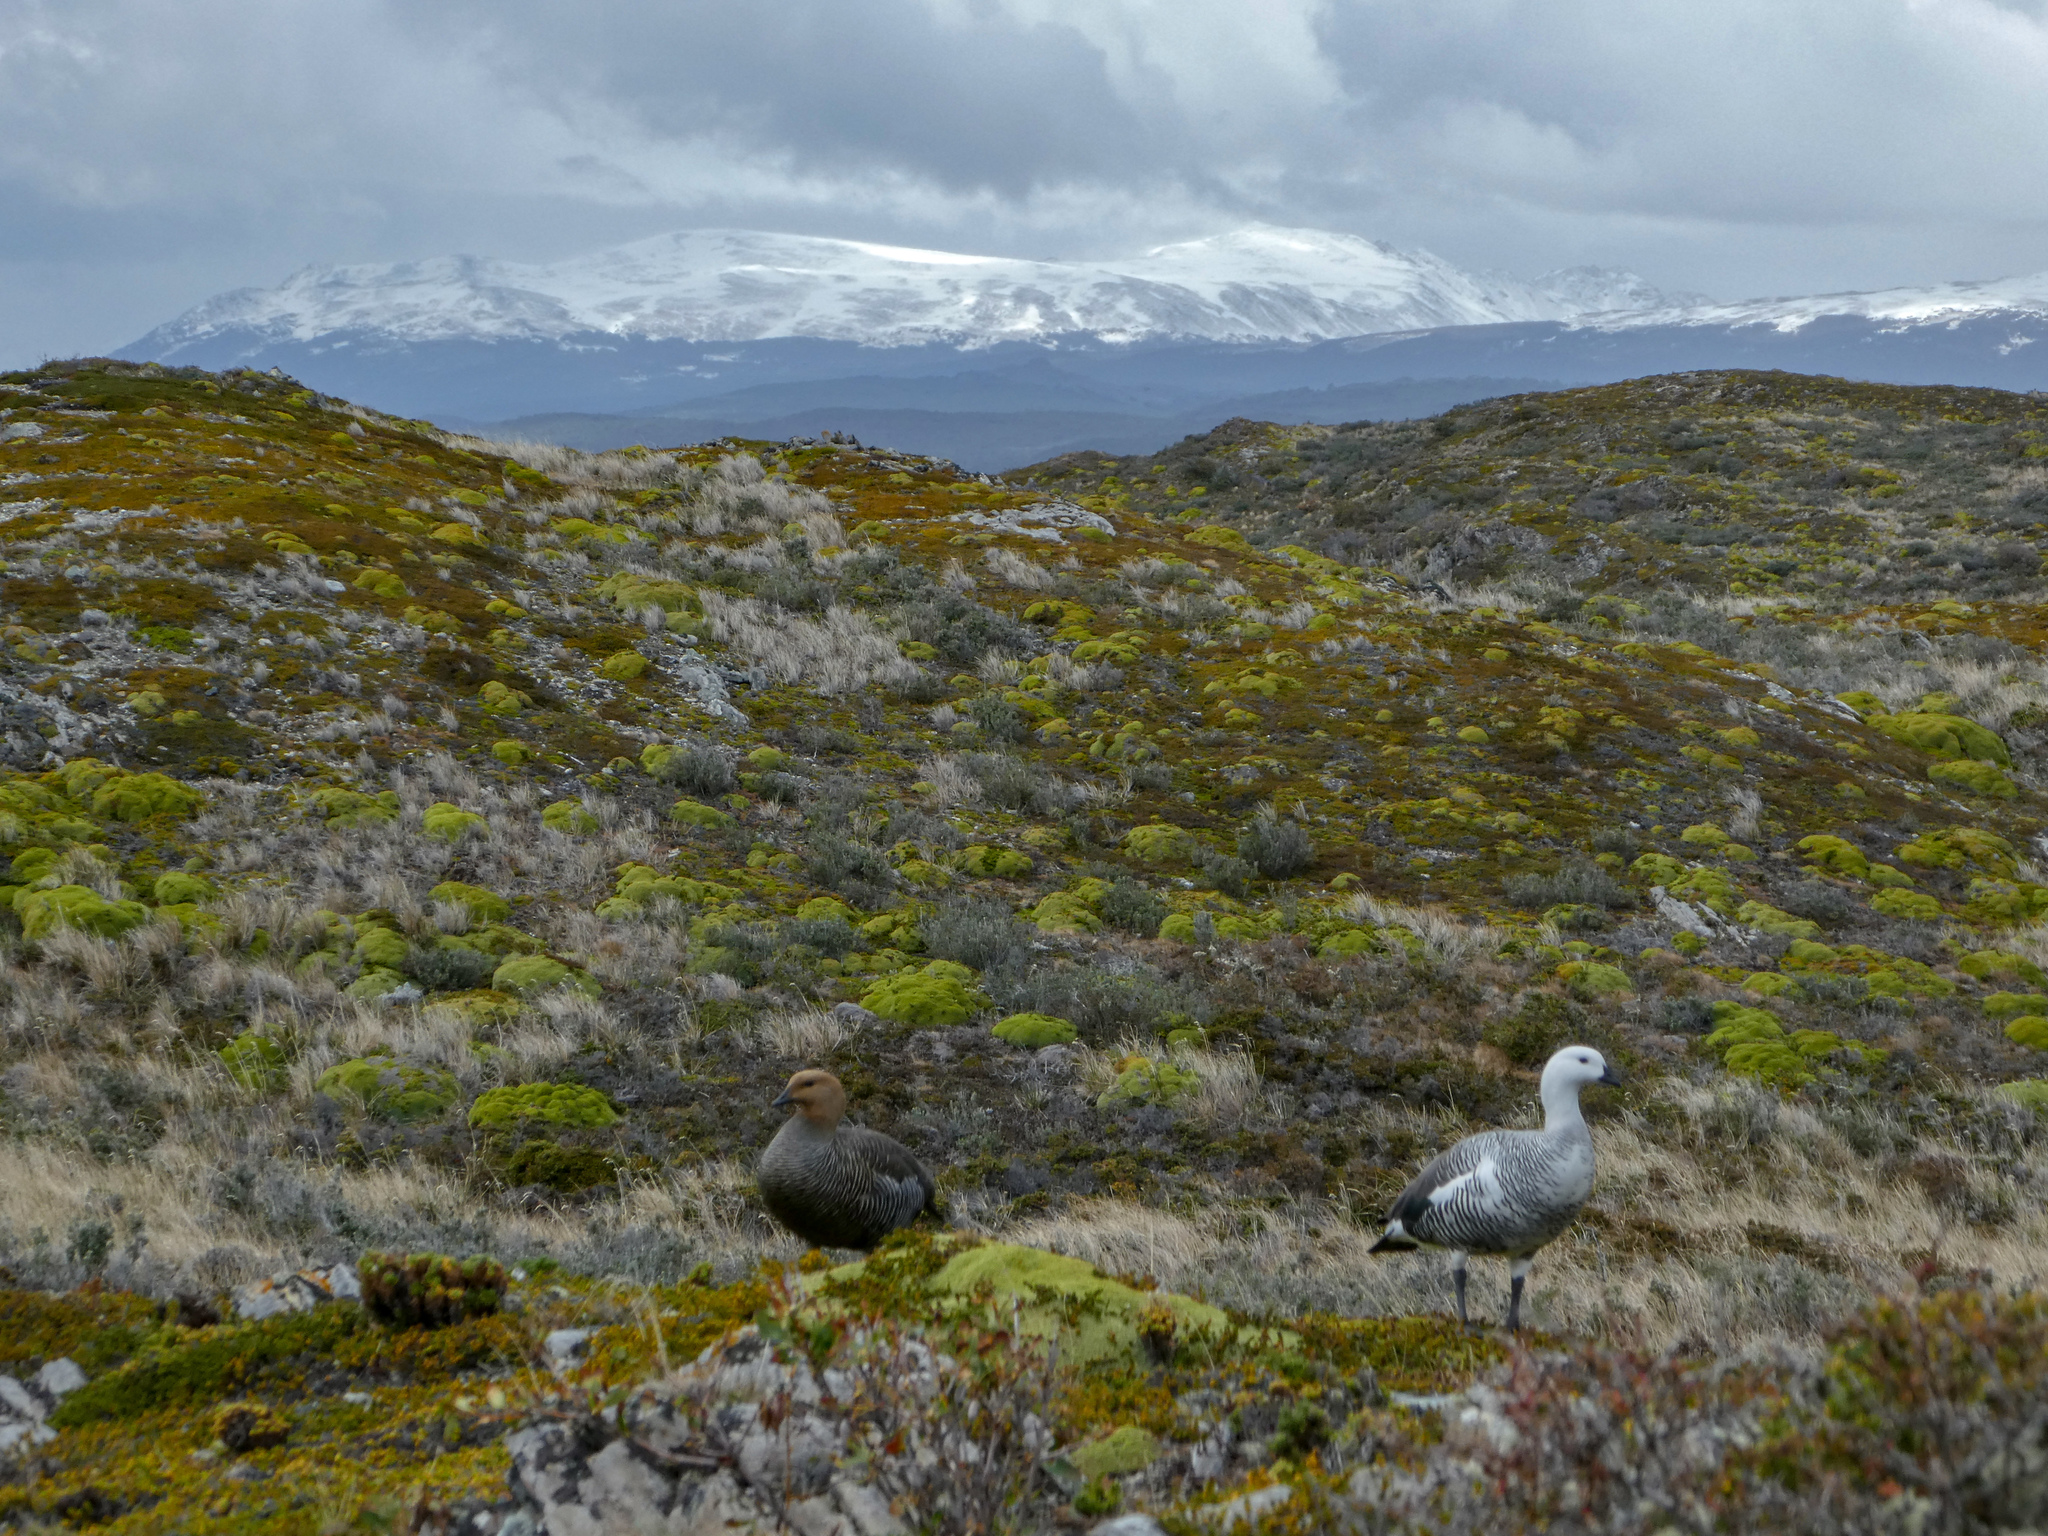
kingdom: Animalia
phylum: Chordata
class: Aves
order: Anseriformes
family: Anatidae
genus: Chloephaga
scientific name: Chloephaga picta
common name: Upland goose
